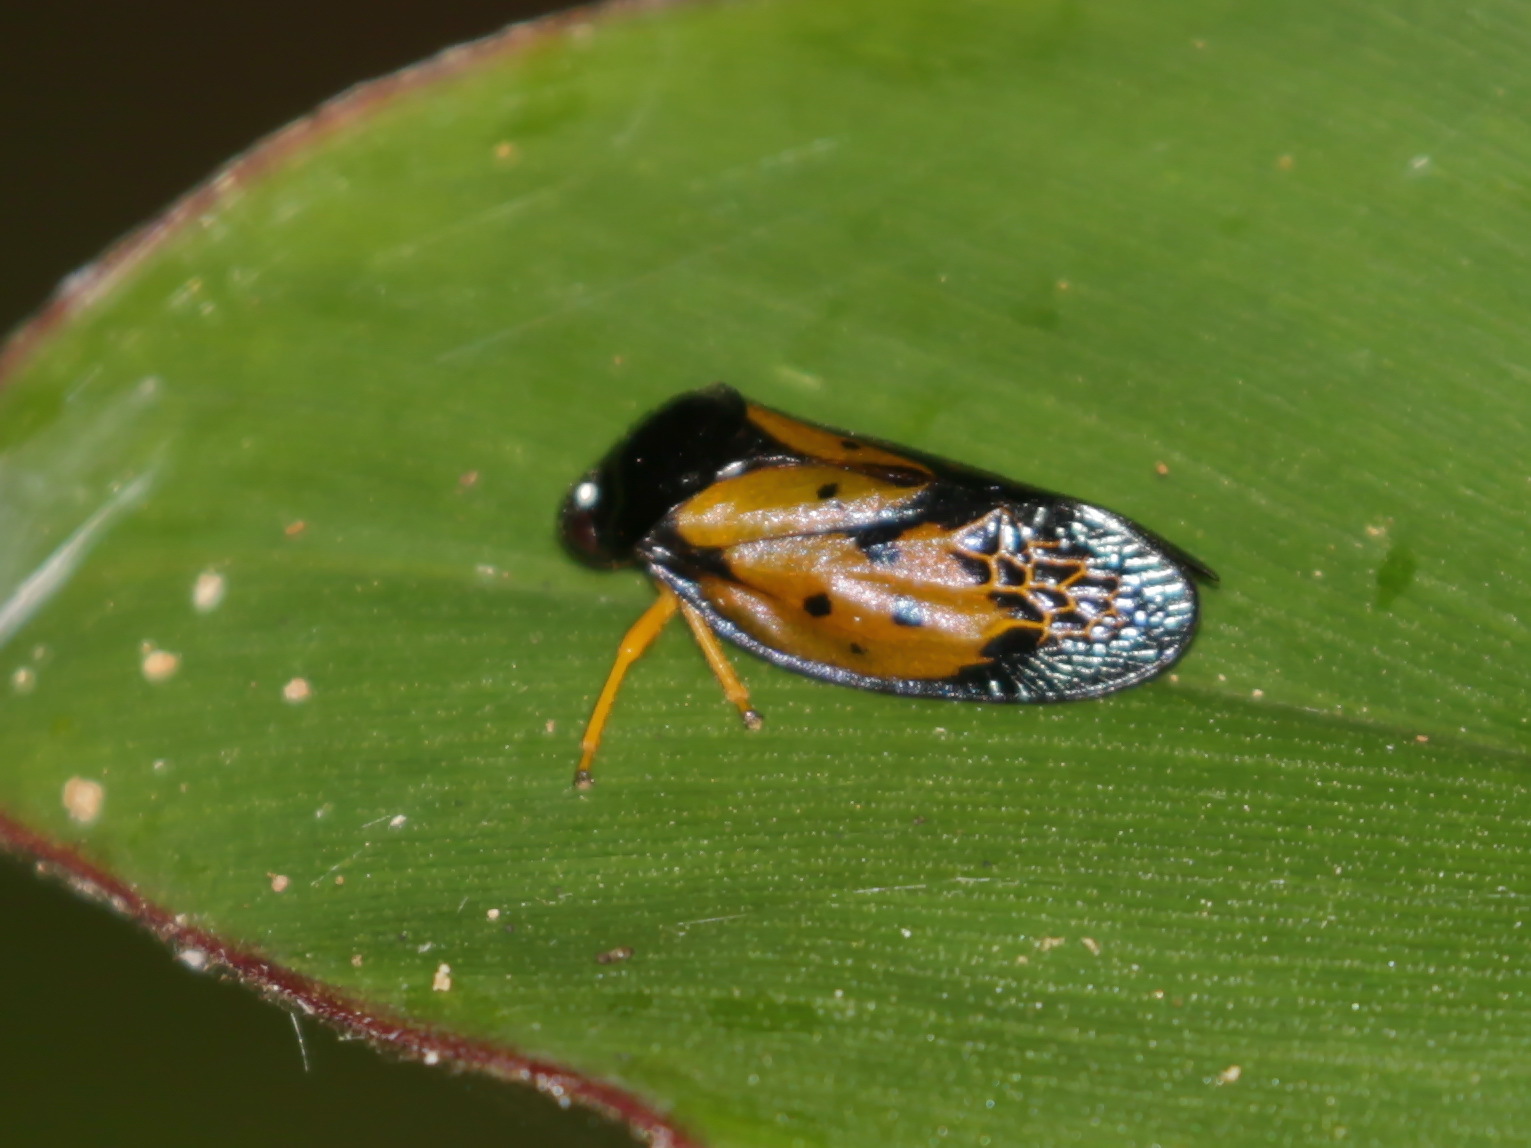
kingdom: Animalia
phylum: Arthropoda
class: Insecta
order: Hemiptera
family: Cercopidae
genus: Leptataspis
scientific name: Leptataspis scabra
